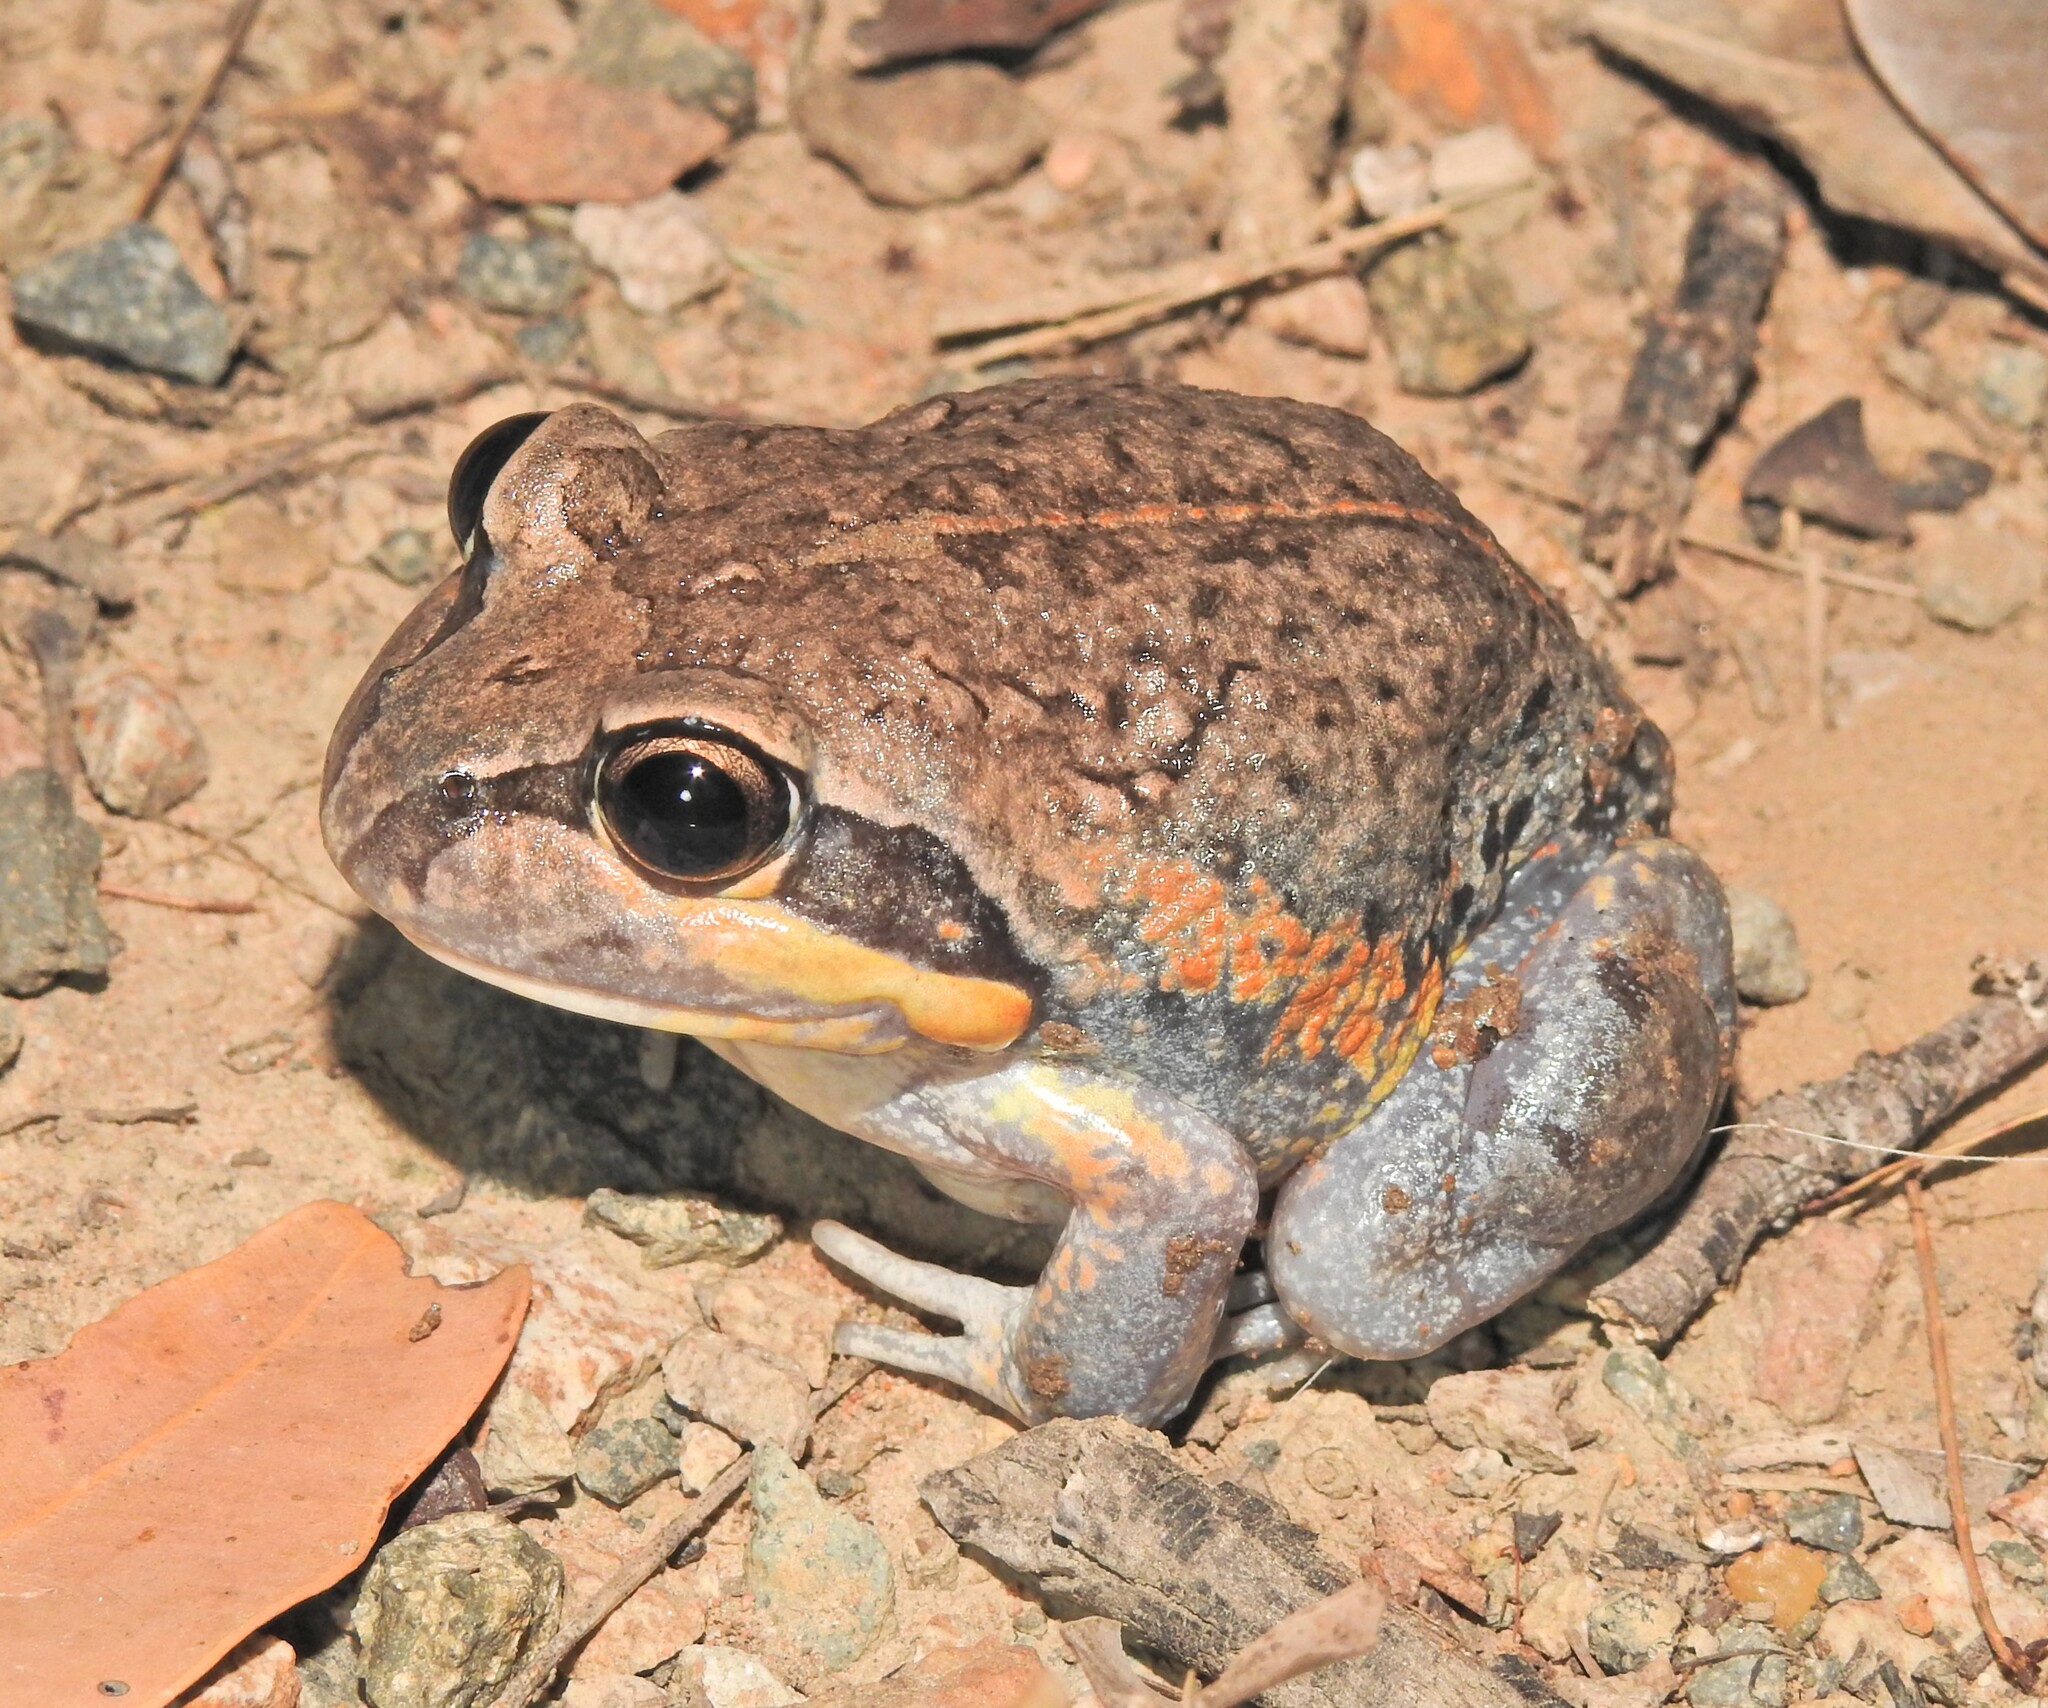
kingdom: Animalia
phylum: Chordata
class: Amphibia
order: Anura
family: Limnodynastidae
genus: Limnodynastes
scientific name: Limnodynastes terraereginae
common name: Northern banjo frog
